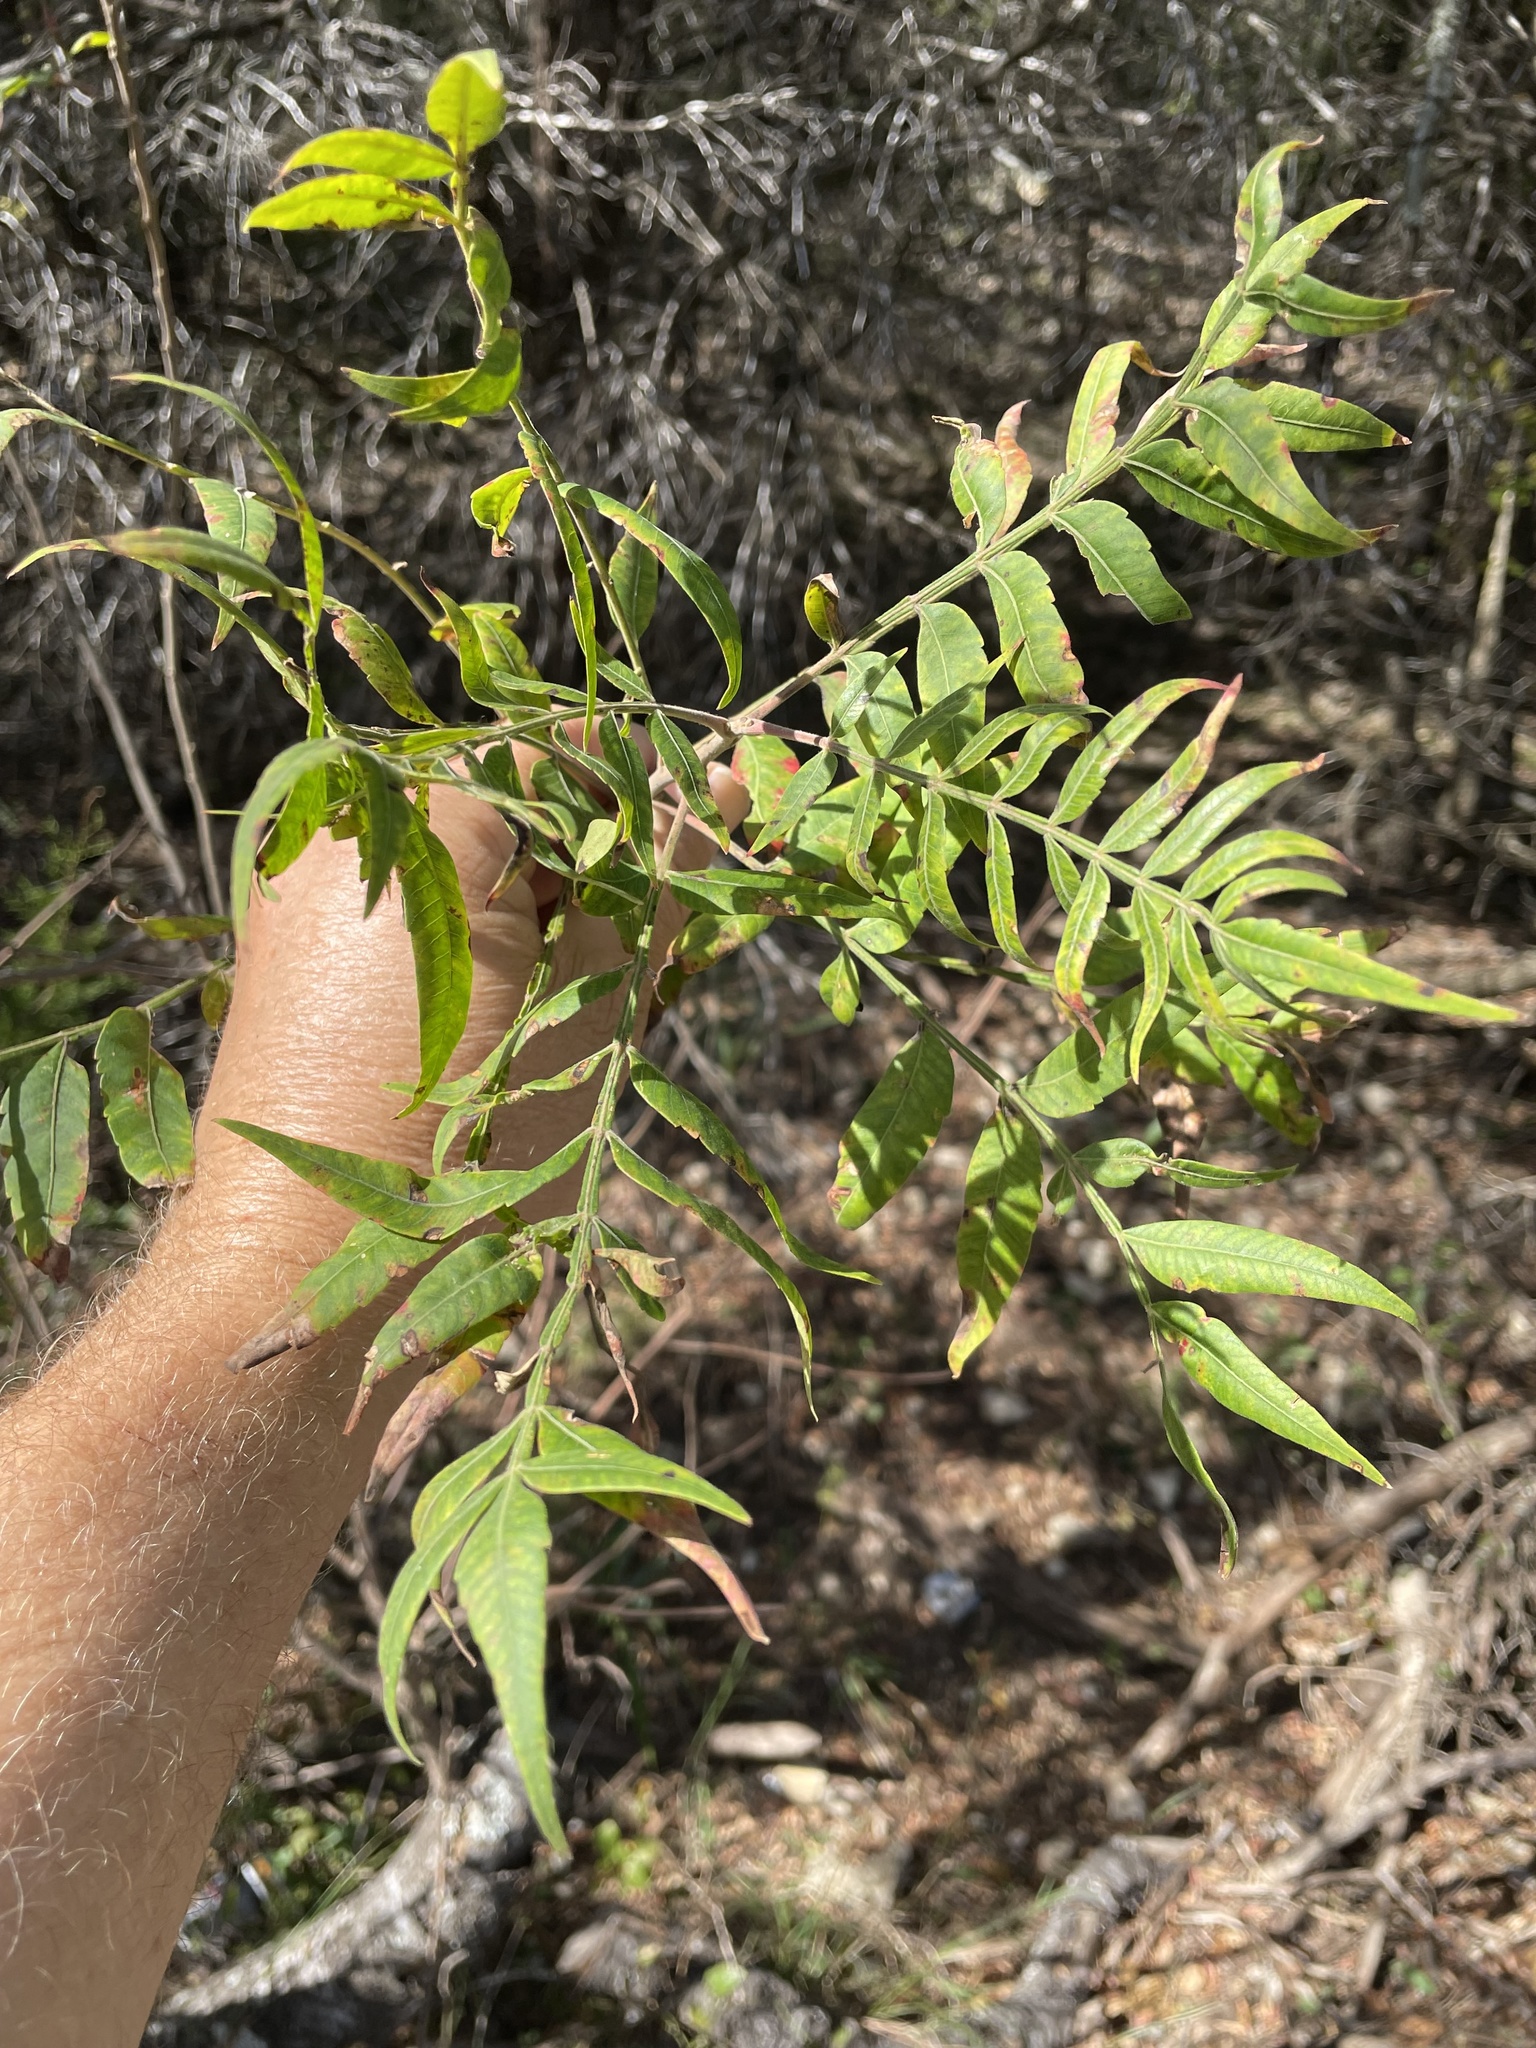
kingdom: Plantae
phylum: Tracheophyta
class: Magnoliopsida
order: Sapindales
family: Anacardiaceae
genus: Rhus
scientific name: Rhus lanceolata
